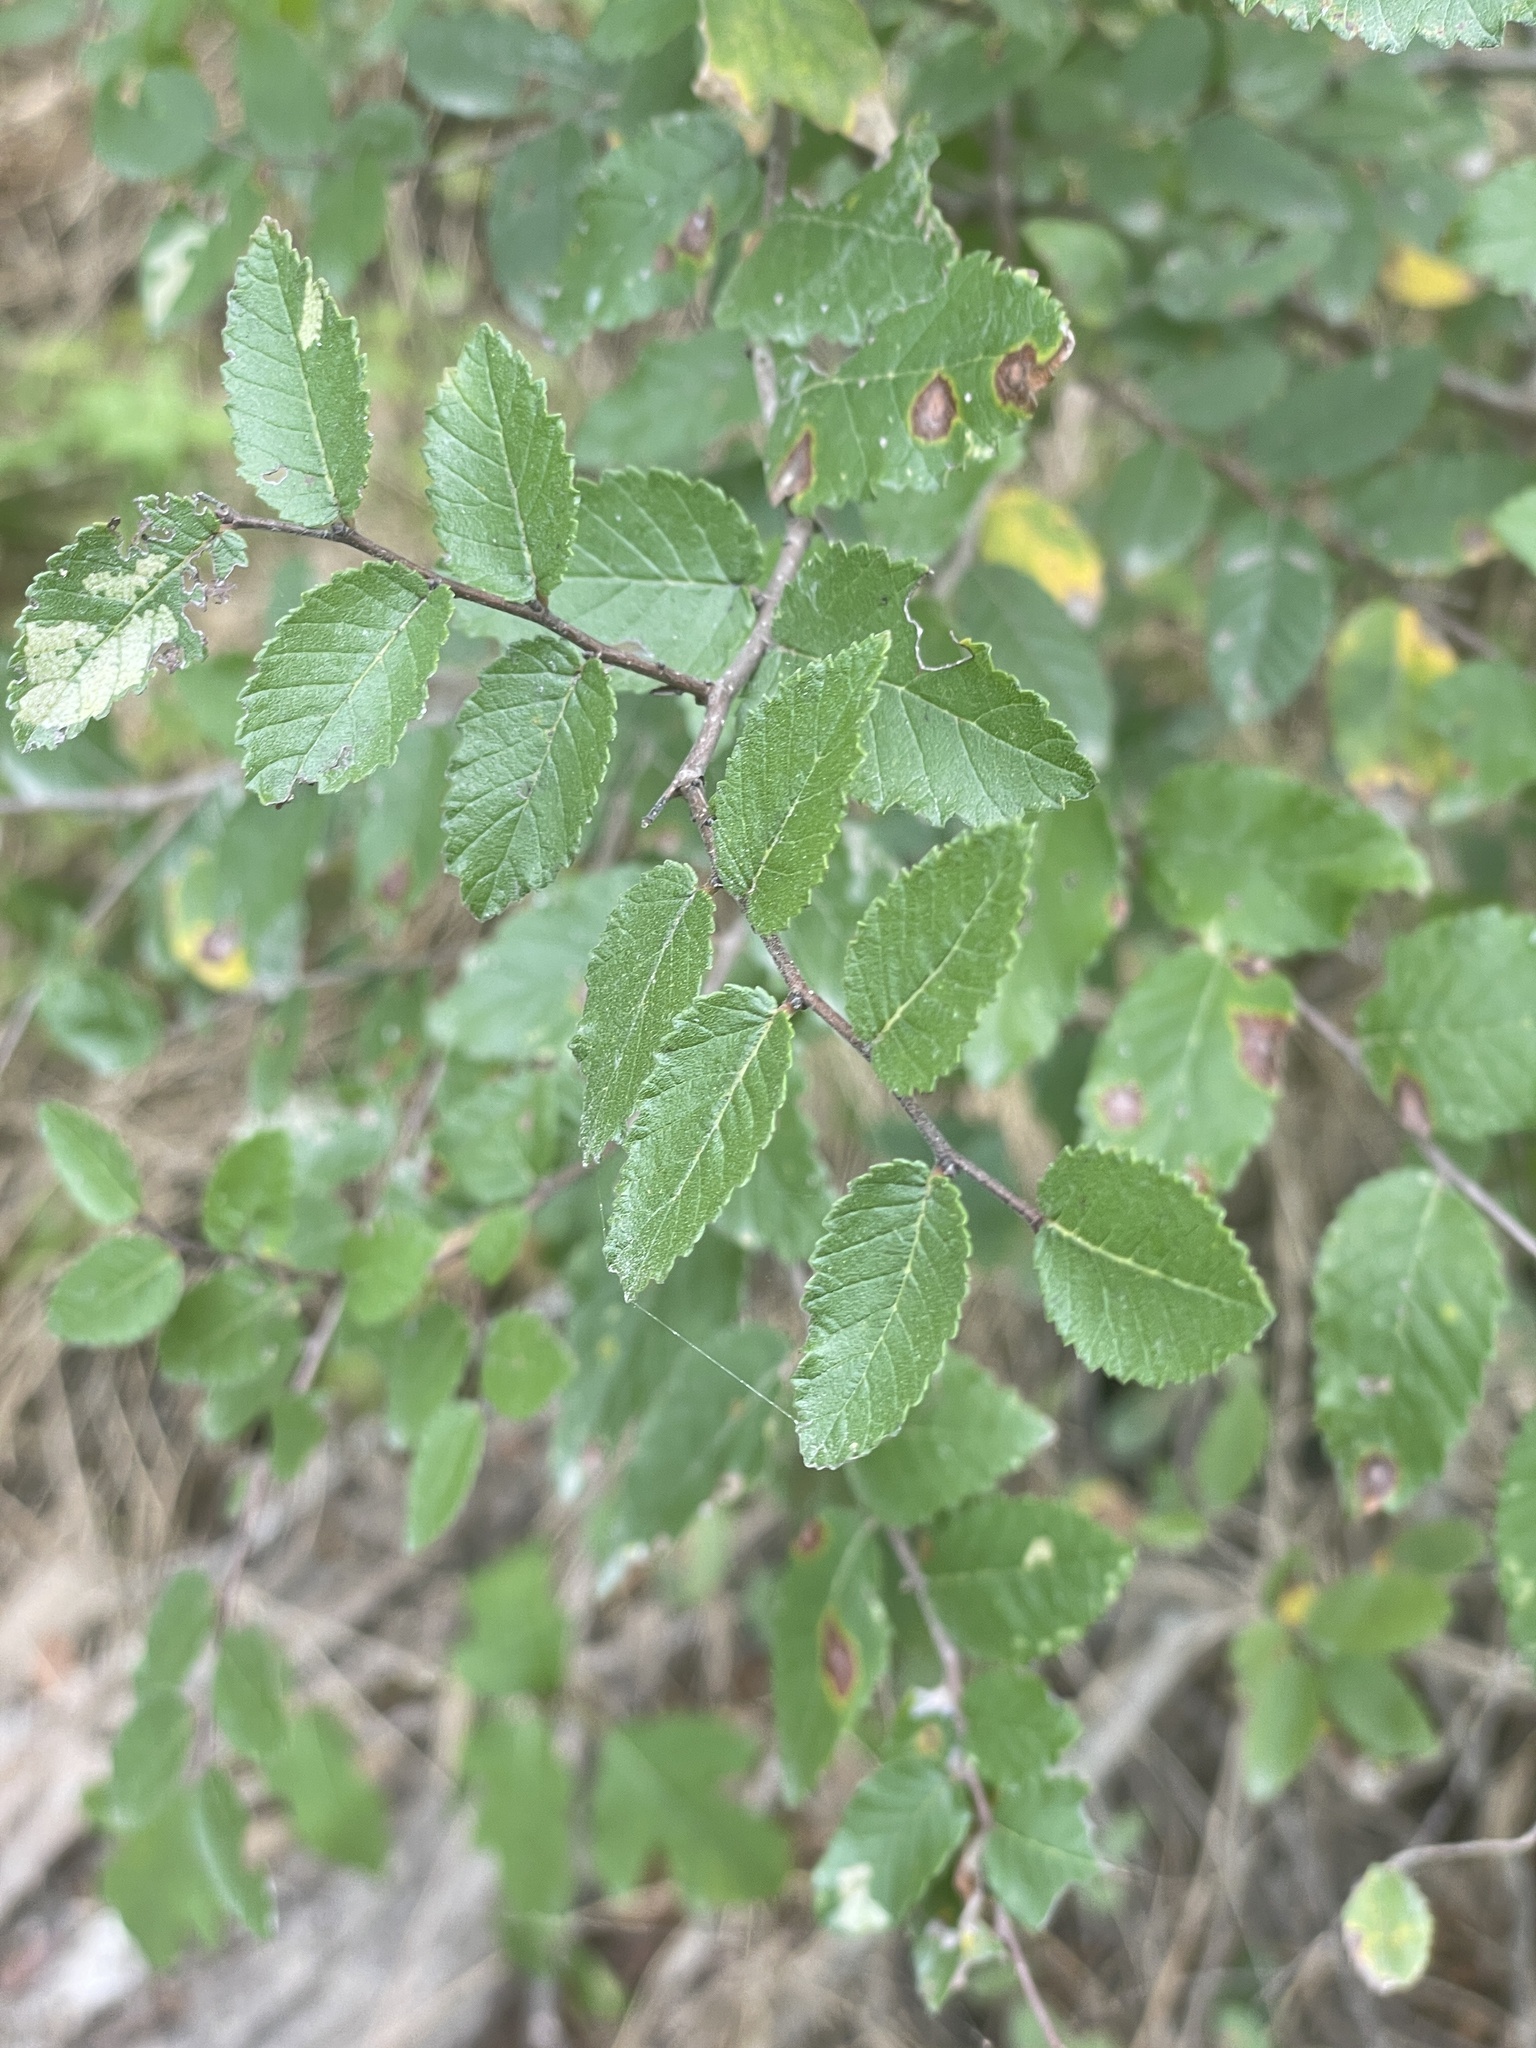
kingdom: Plantae
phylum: Tracheophyta
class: Magnoliopsida
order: Rosales
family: Ulmaceae
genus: Ulmus
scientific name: Ulmus crassifolia
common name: Basket elm
